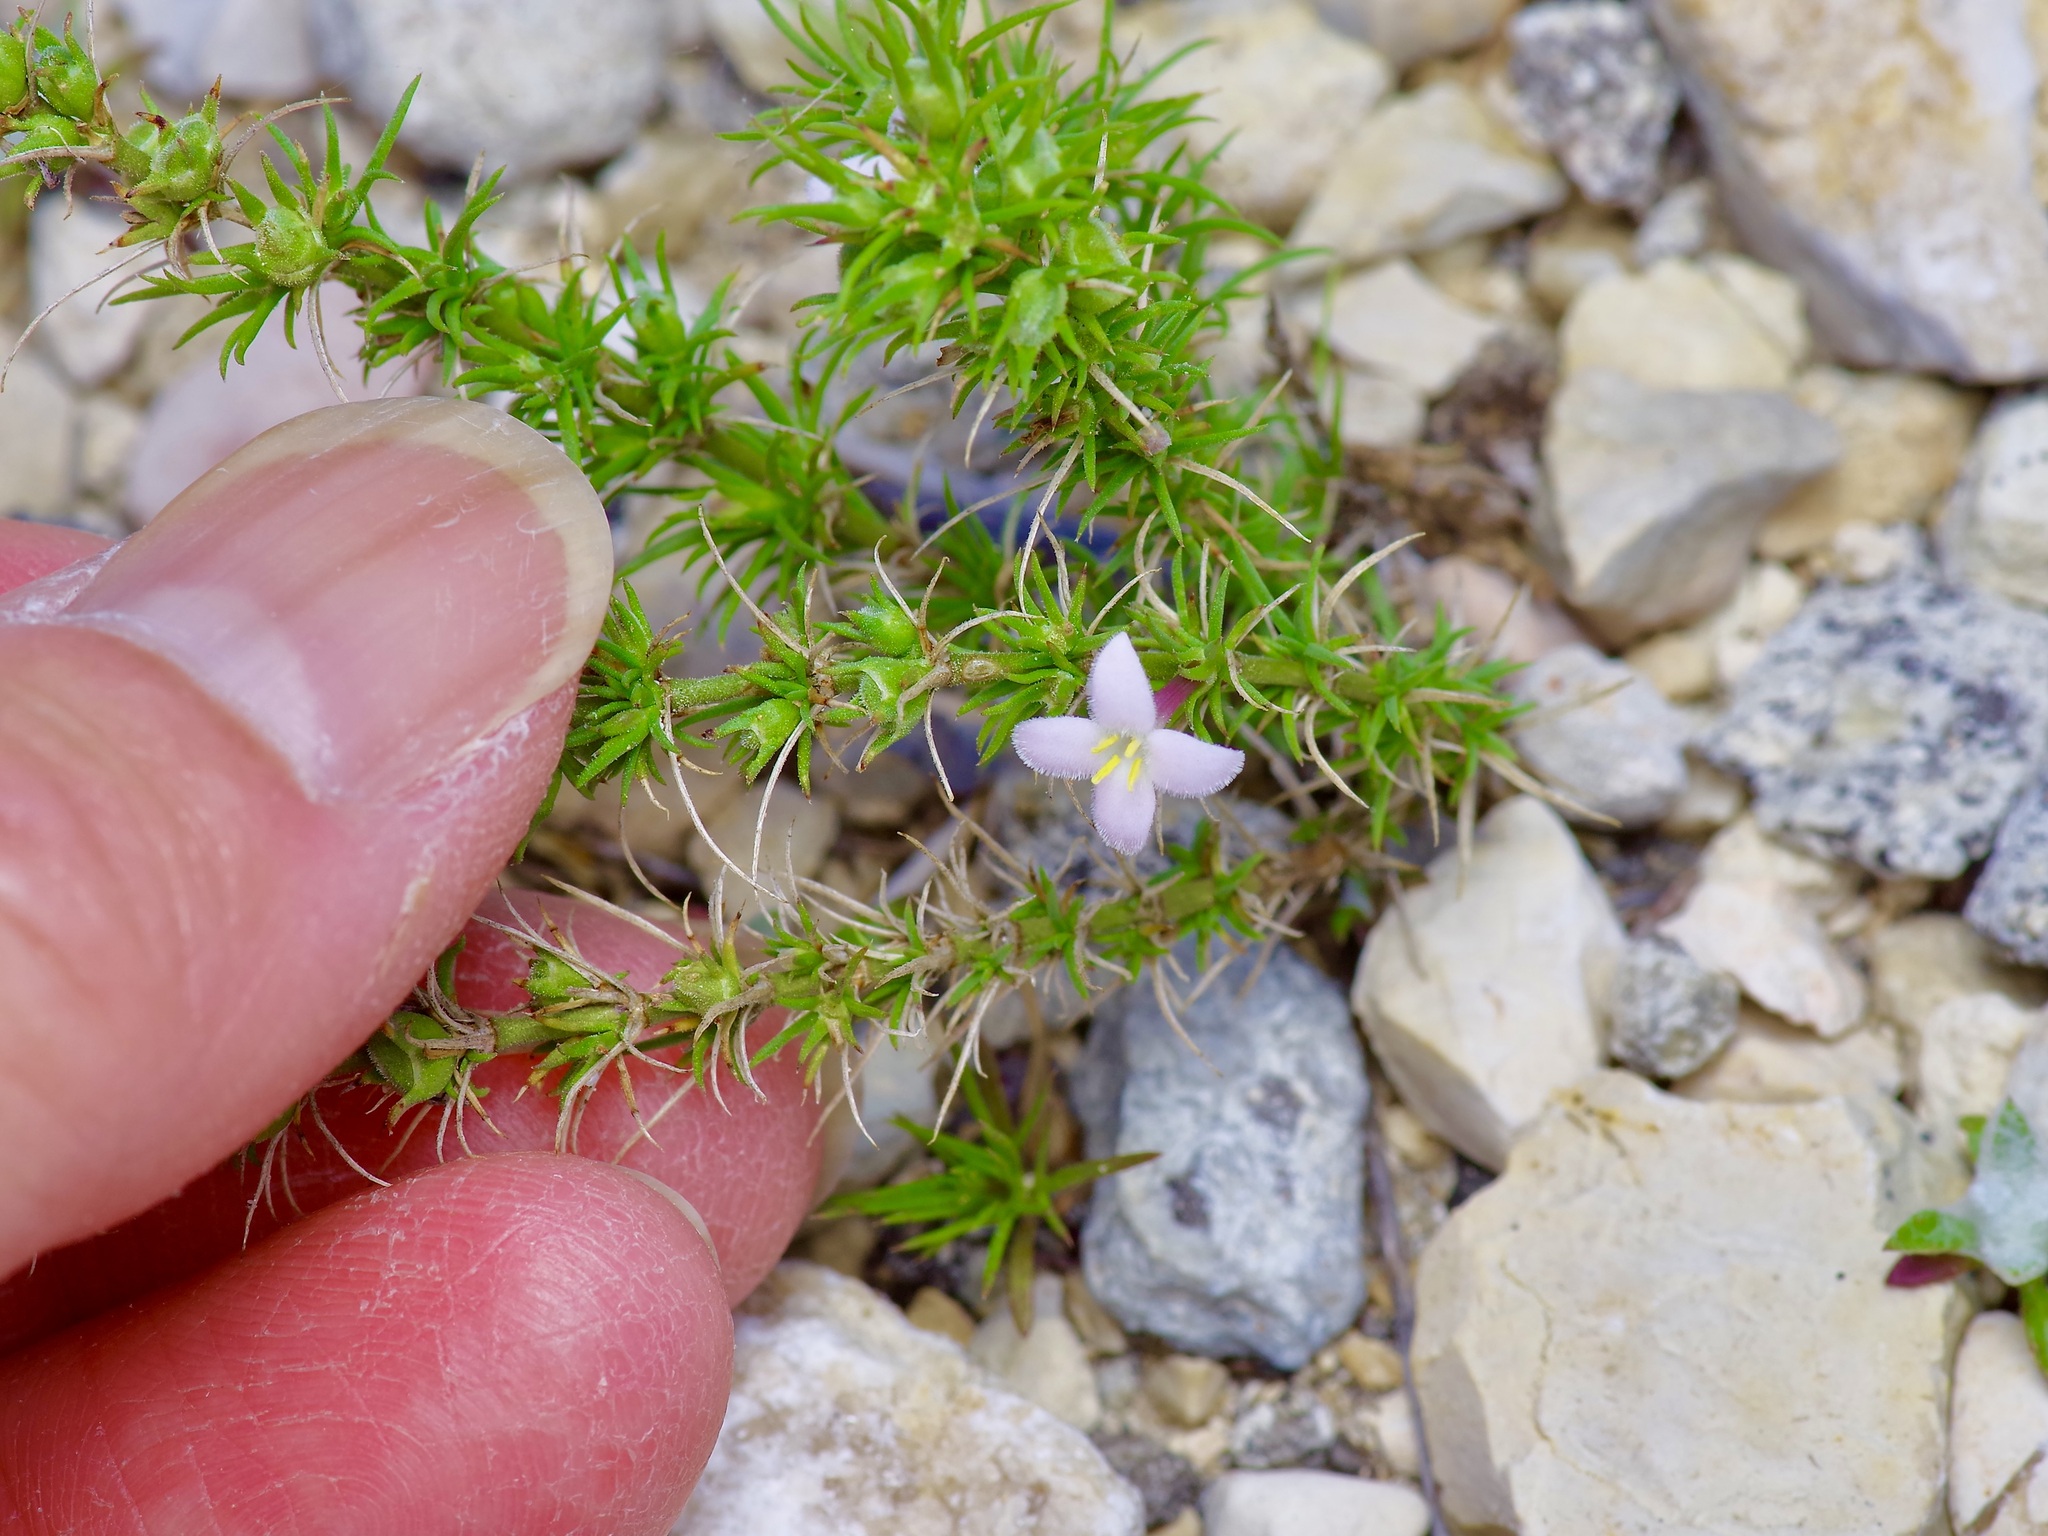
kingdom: Plantae
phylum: Tracheophyta
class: Magnoliopsida
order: Gentianales
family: Rubiaceae
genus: Houstonia
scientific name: Houstonia acerosa
